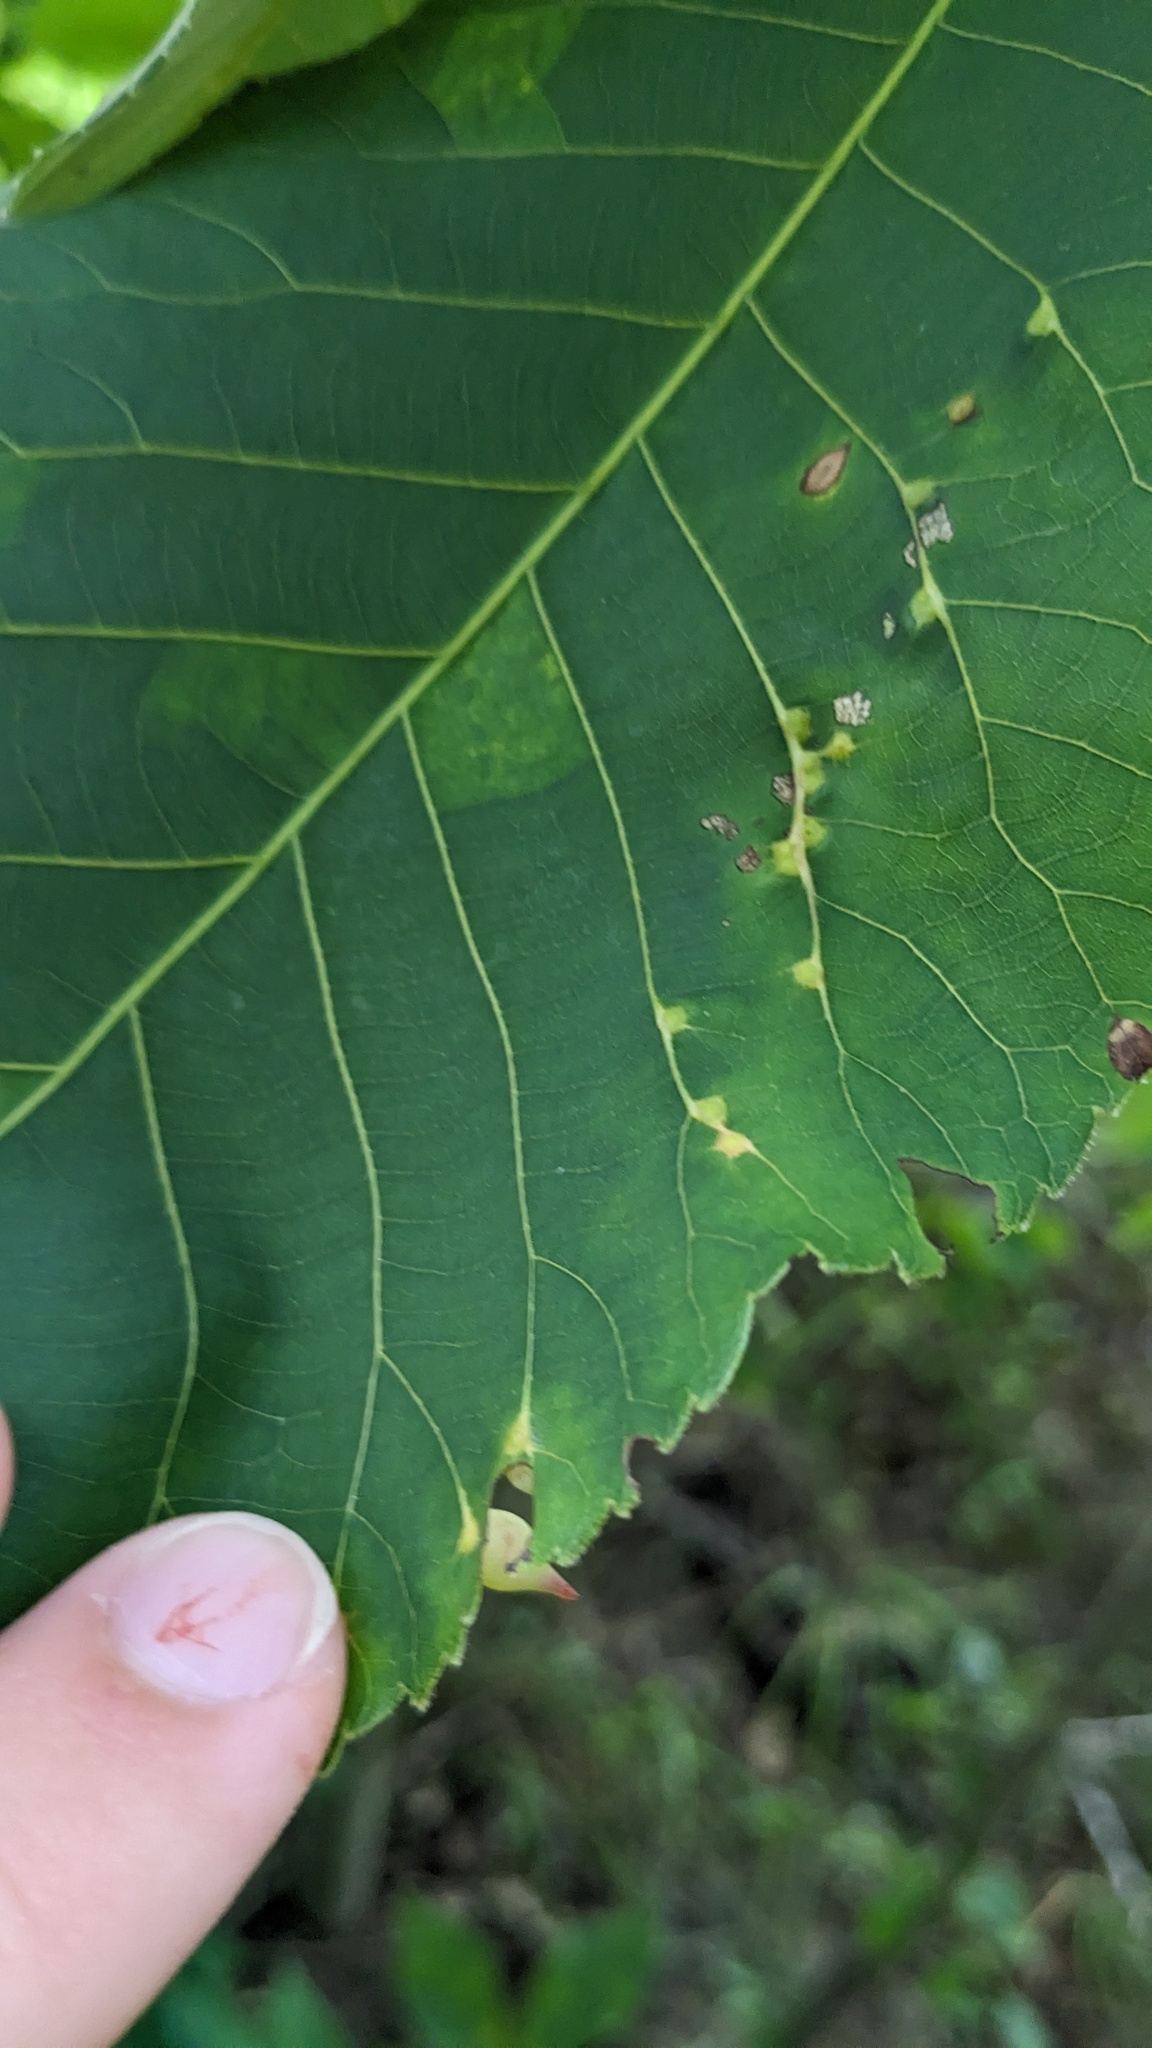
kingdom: Animalia
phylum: Arthropoda
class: Insecta
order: Diptera
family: Cecidomyiidae
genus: Caryomyia
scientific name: Caryomyia caryaecola
